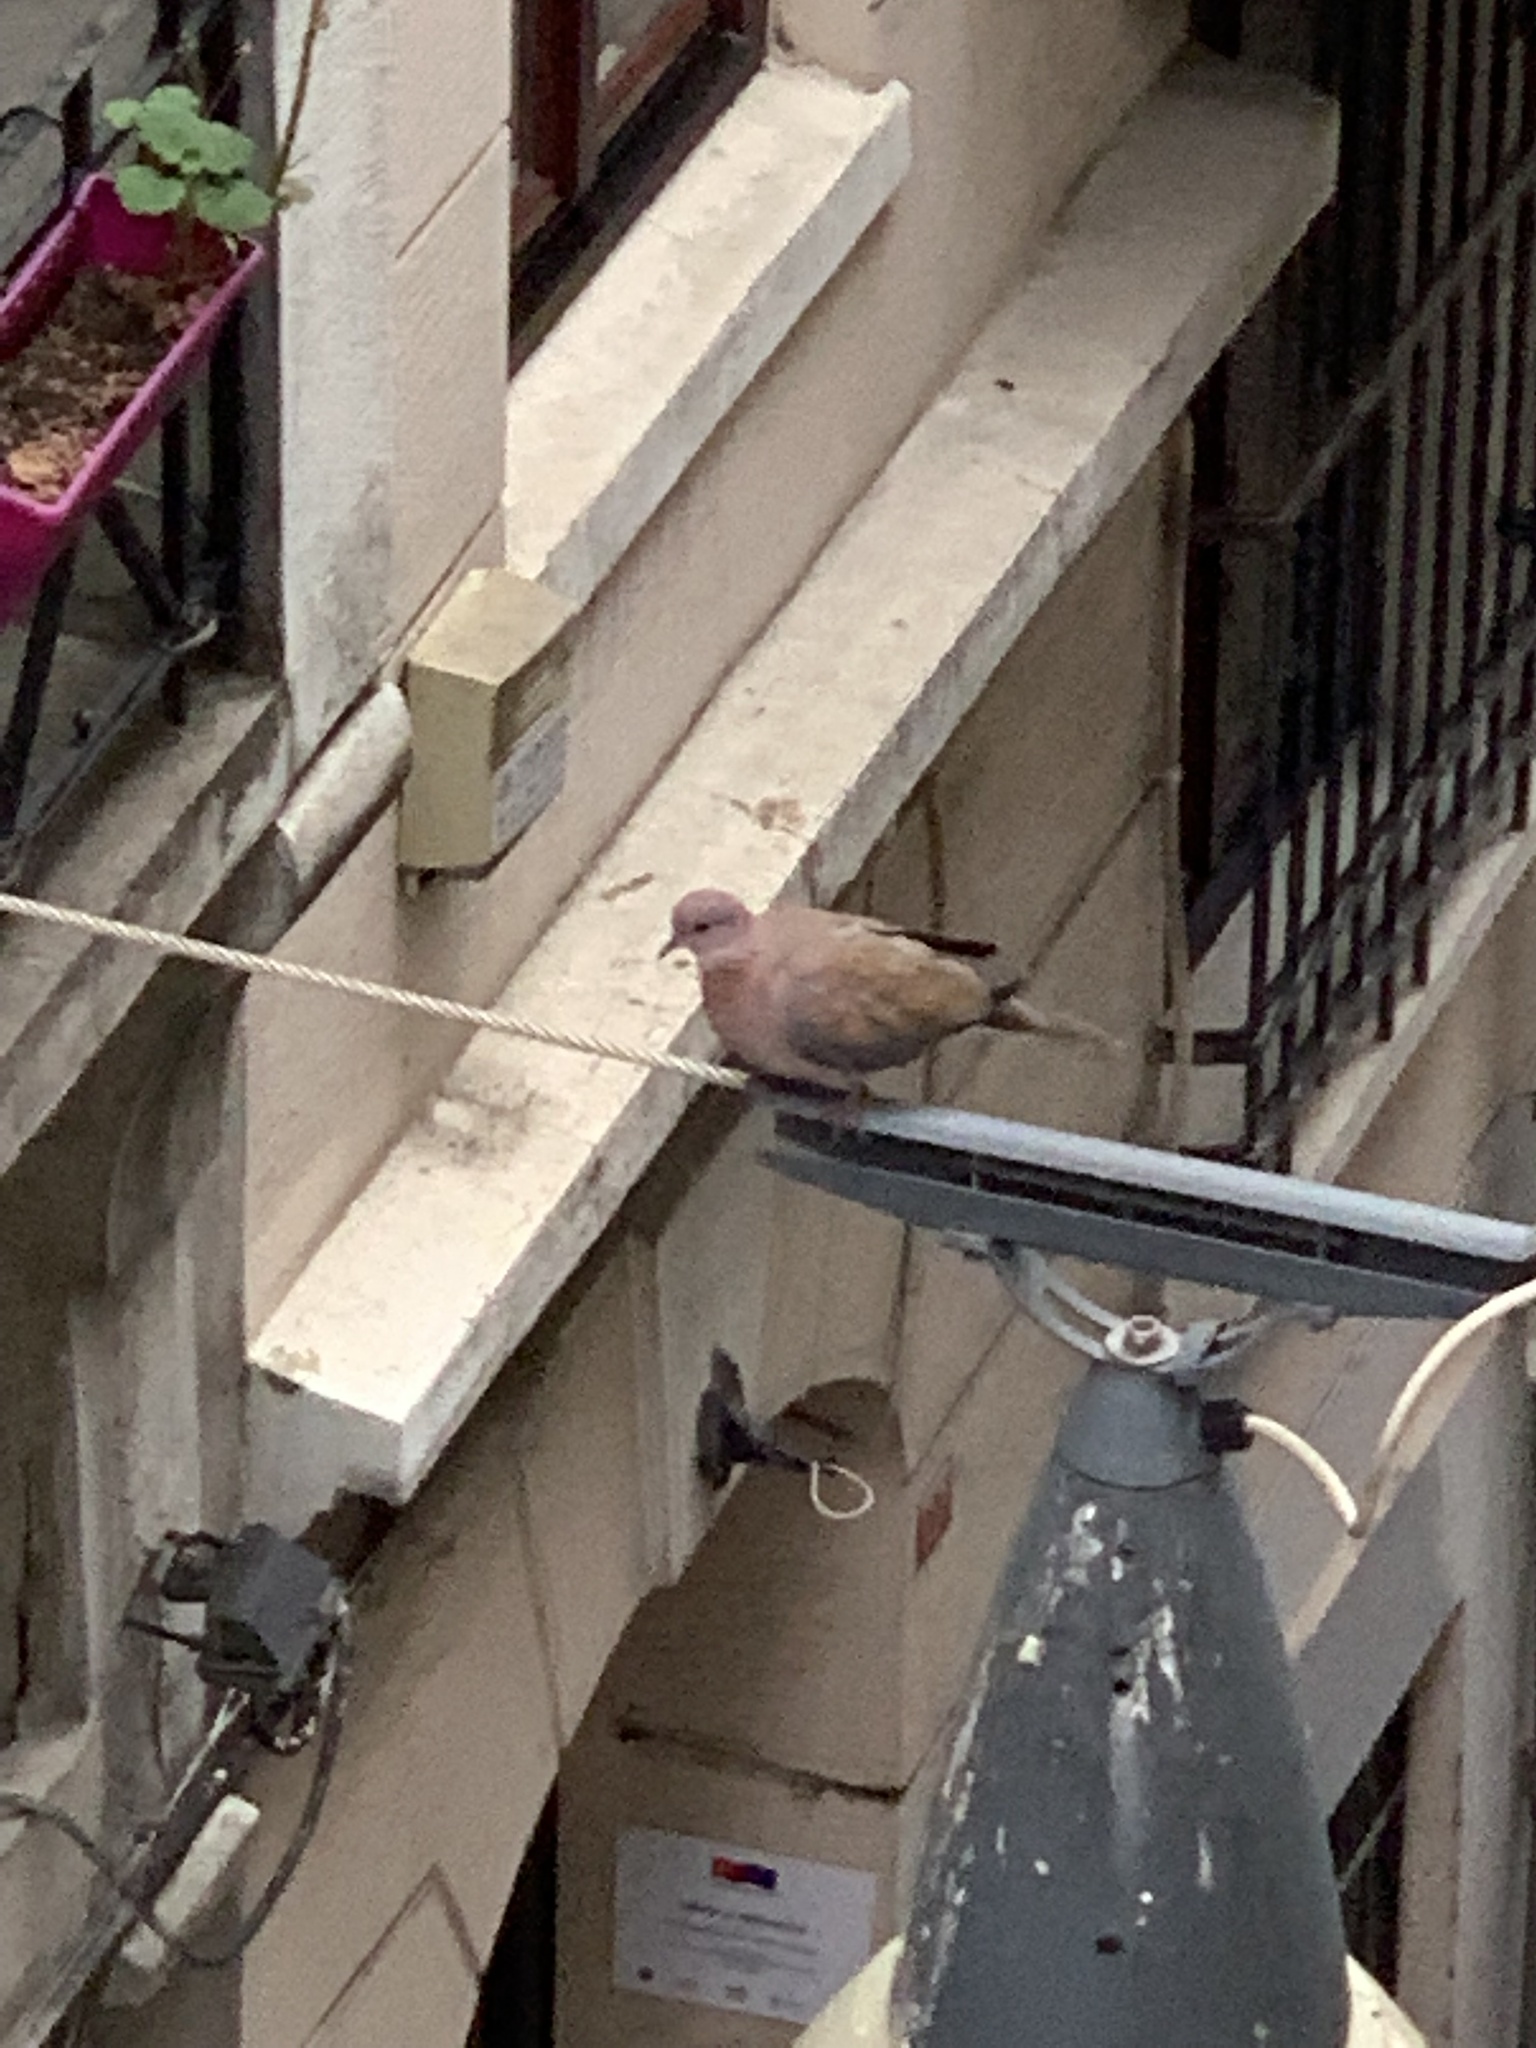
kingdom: Animalia
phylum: Chordata
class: Aves
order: Columbiformes
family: Columbidae
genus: Spilopelia
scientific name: Spilopelia senegalensis
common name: Laughing dove
